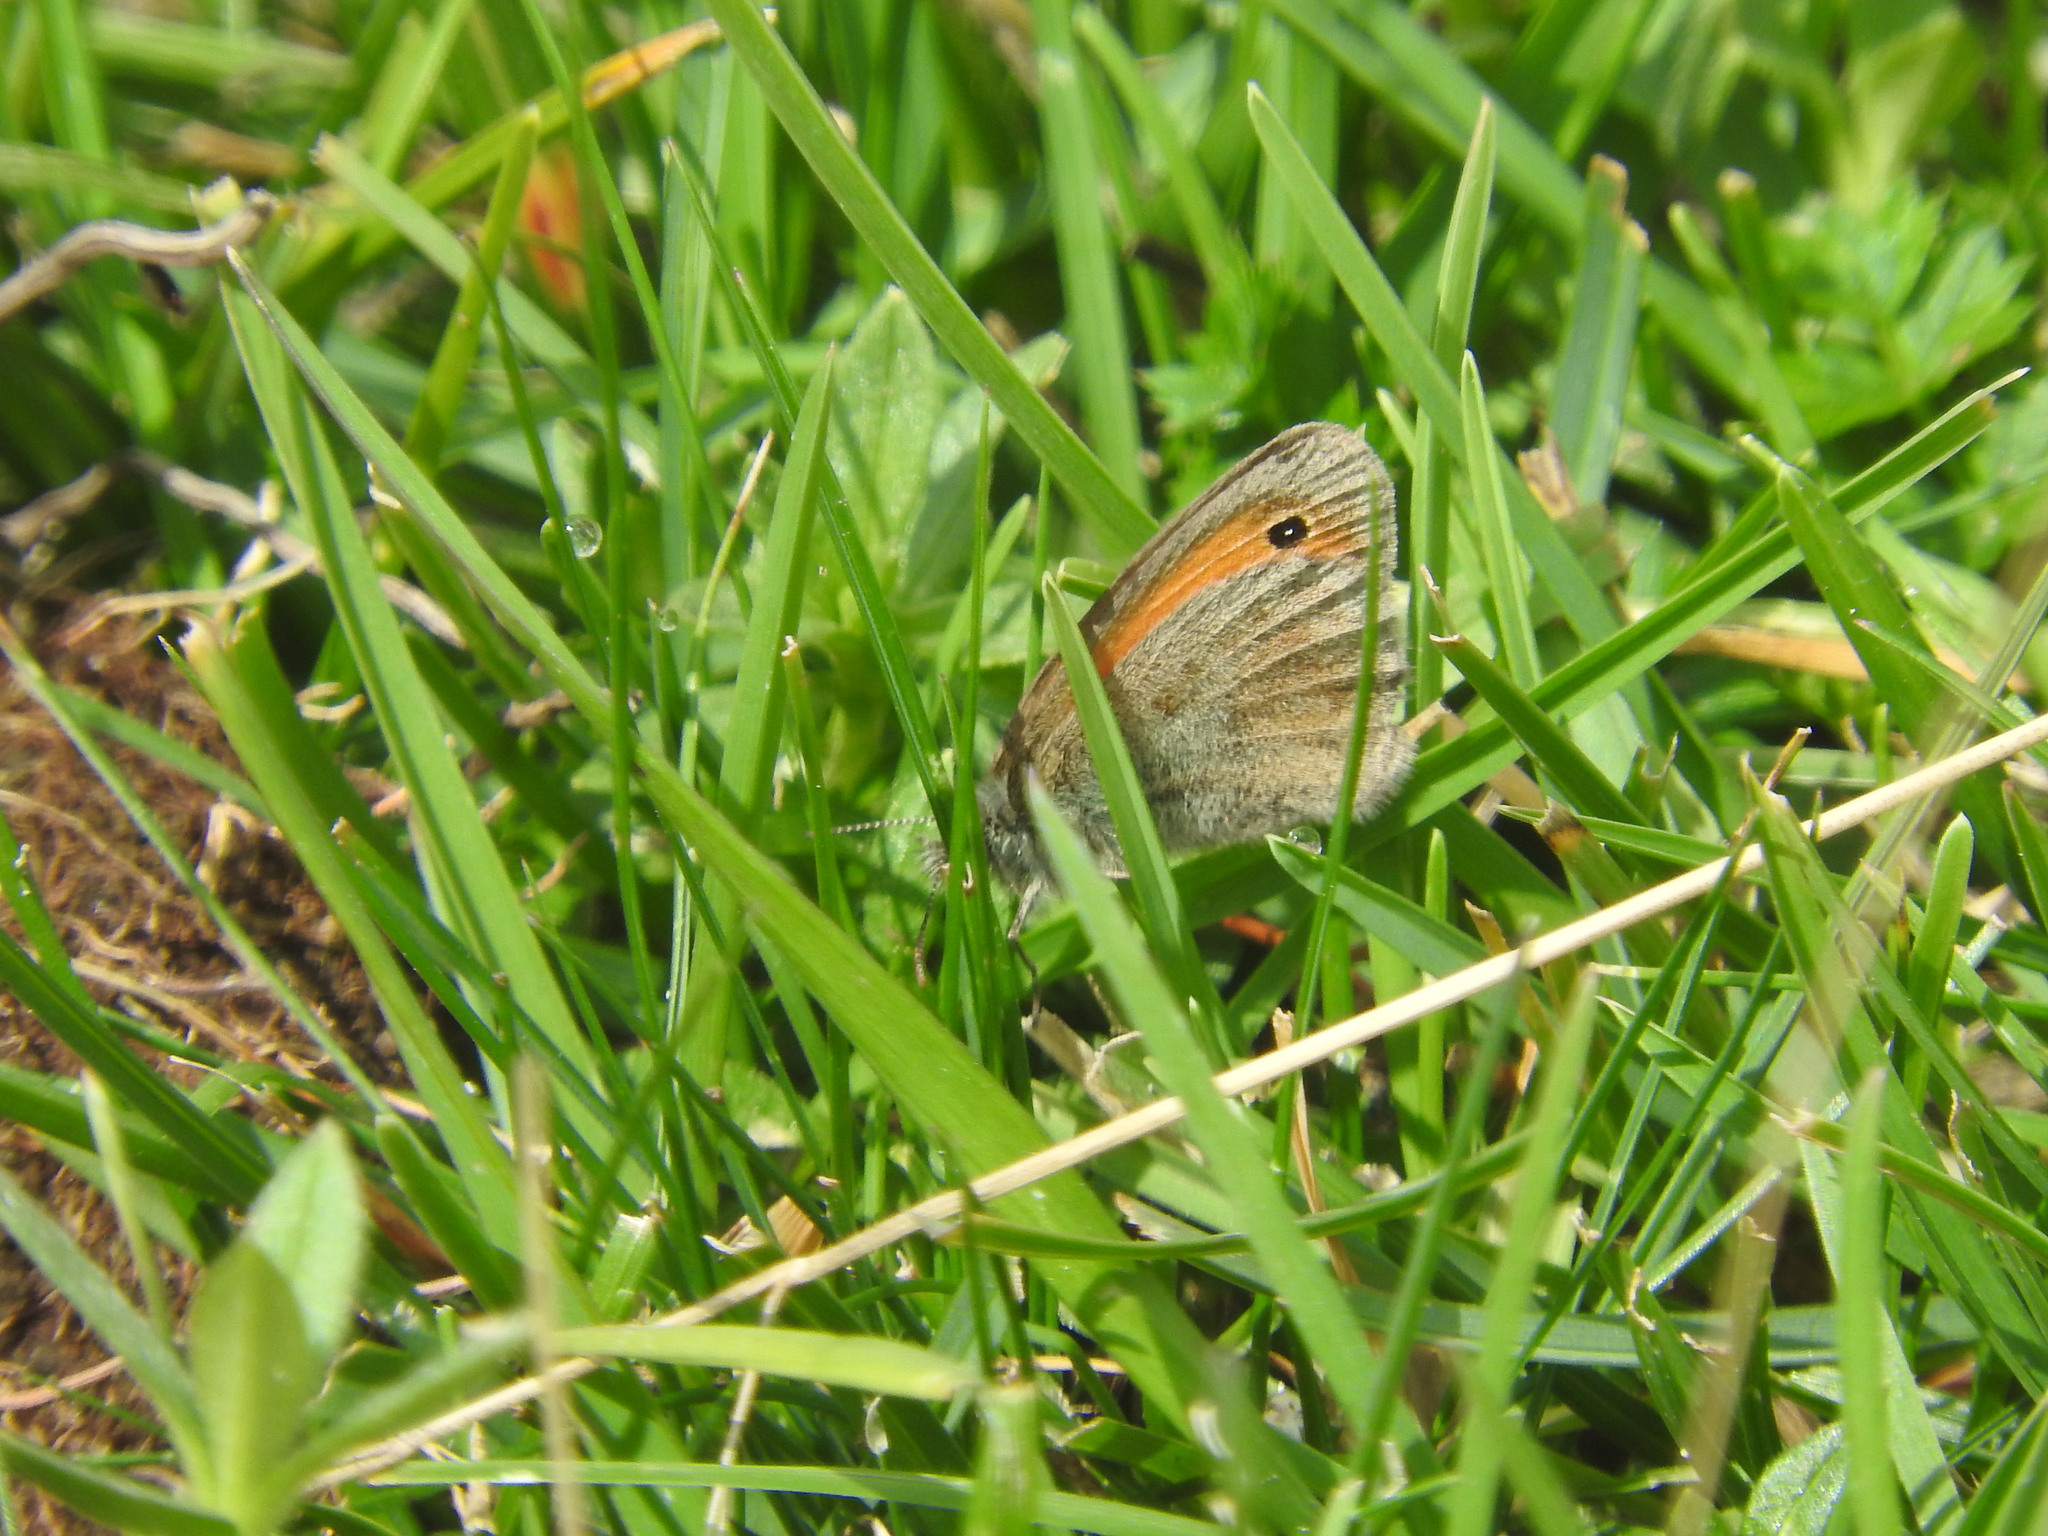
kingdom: Animalia
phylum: Arthropoda
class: Insecta
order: Lepidoptera
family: Nymphalidae
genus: Coenonympha
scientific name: Coenonympha pamphilus
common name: Small heath
